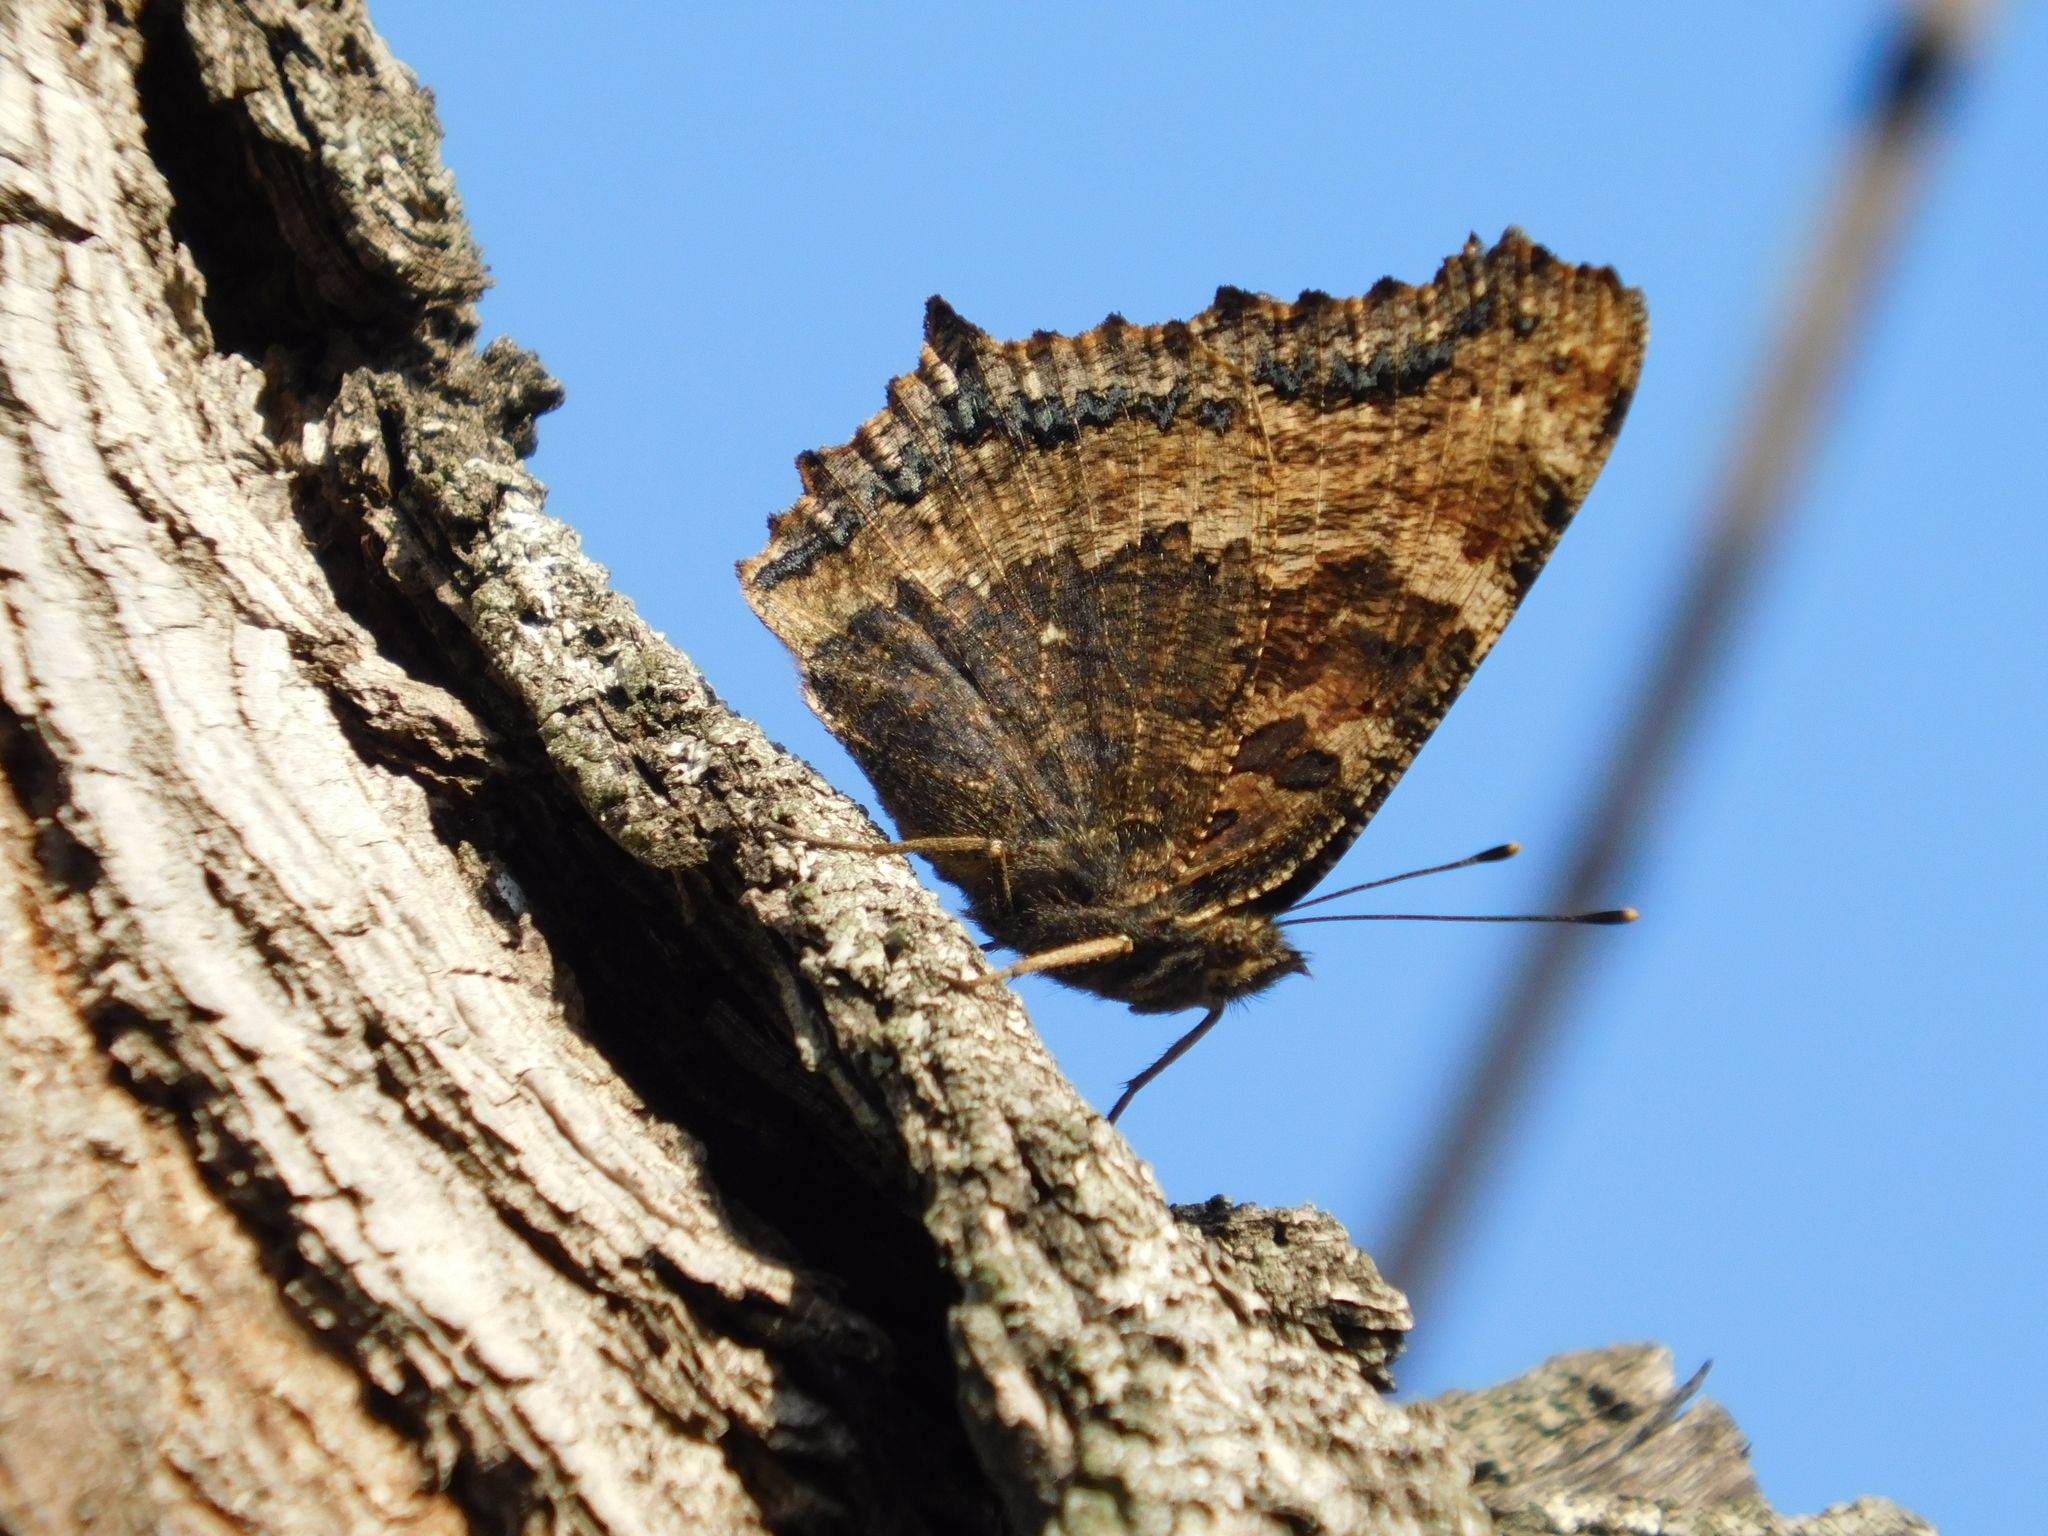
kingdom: Animalia
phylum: Arthropoda
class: Insecta
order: Lepidoptera
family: Nymphalidae
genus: Nymphalis
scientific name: Nymphalis xanthomelas
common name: Scarce tortoiseshell
